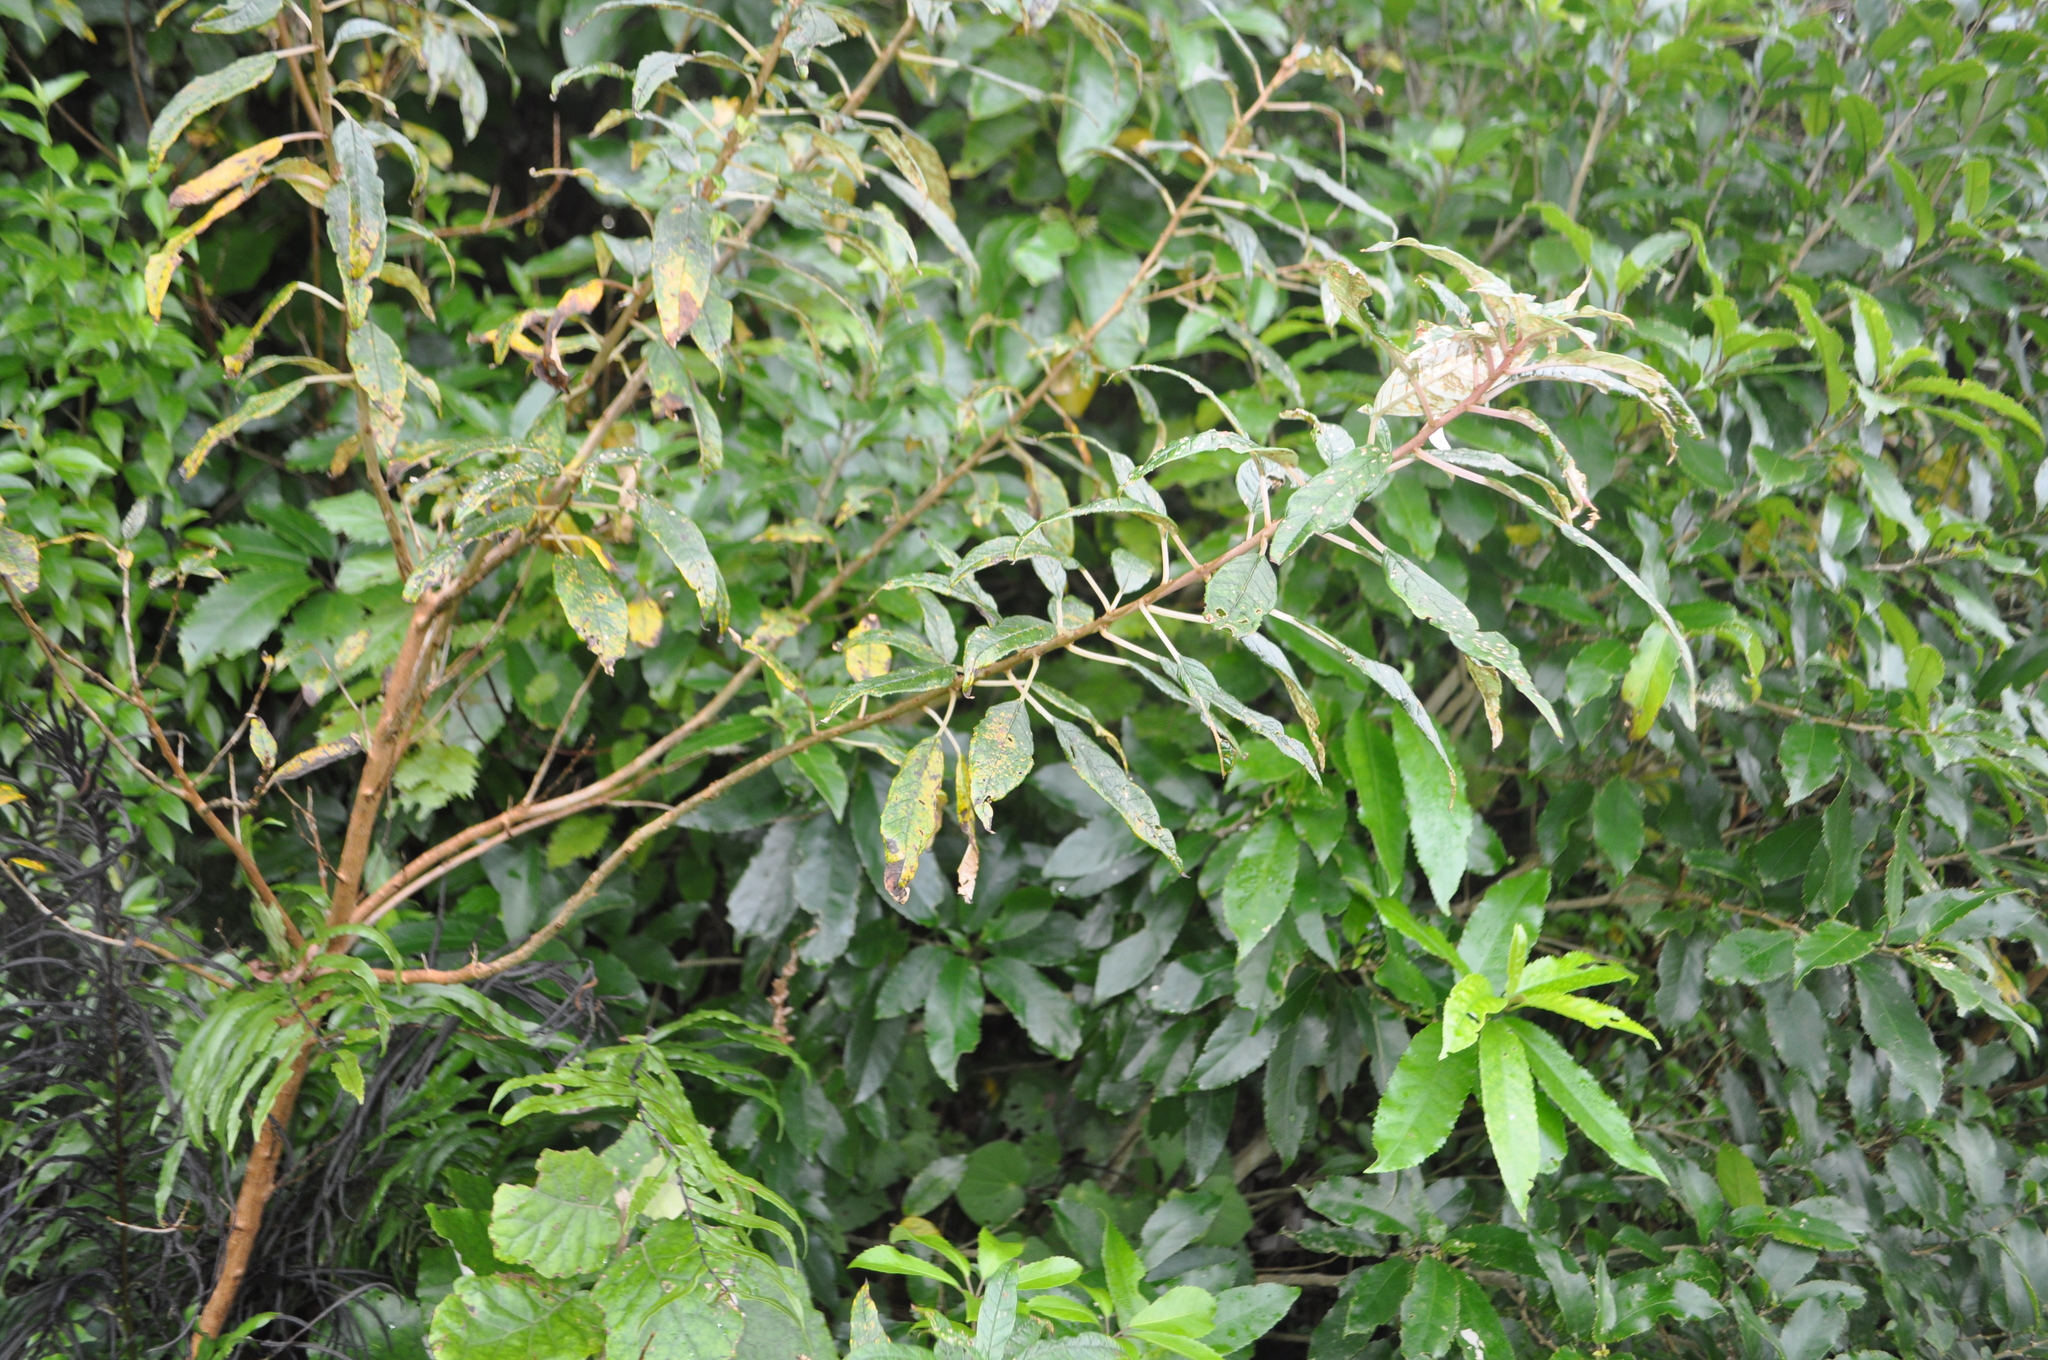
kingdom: Plantae
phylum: Tracheophyta
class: Magnoliopsida
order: Myrtales
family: Onagraceae
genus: Fuchsia
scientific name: Fuchsia excorticata
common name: Tree fuchsia
